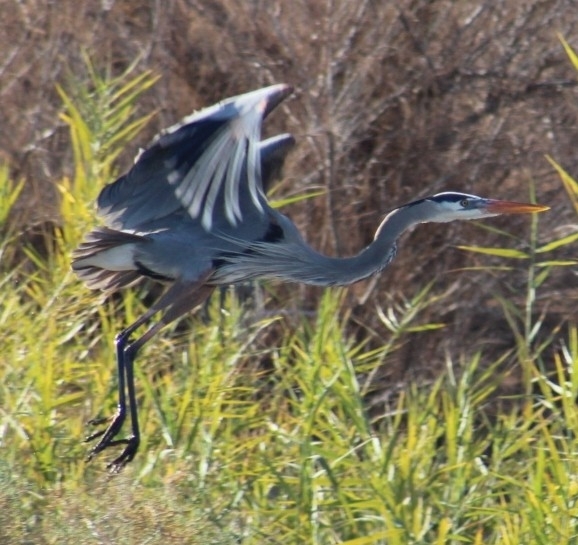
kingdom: Animalia
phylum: Chordata
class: Aves
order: Pelecaniformes
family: Ardeidae
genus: Ardea
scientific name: Ardea herodias
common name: Great blue heron
